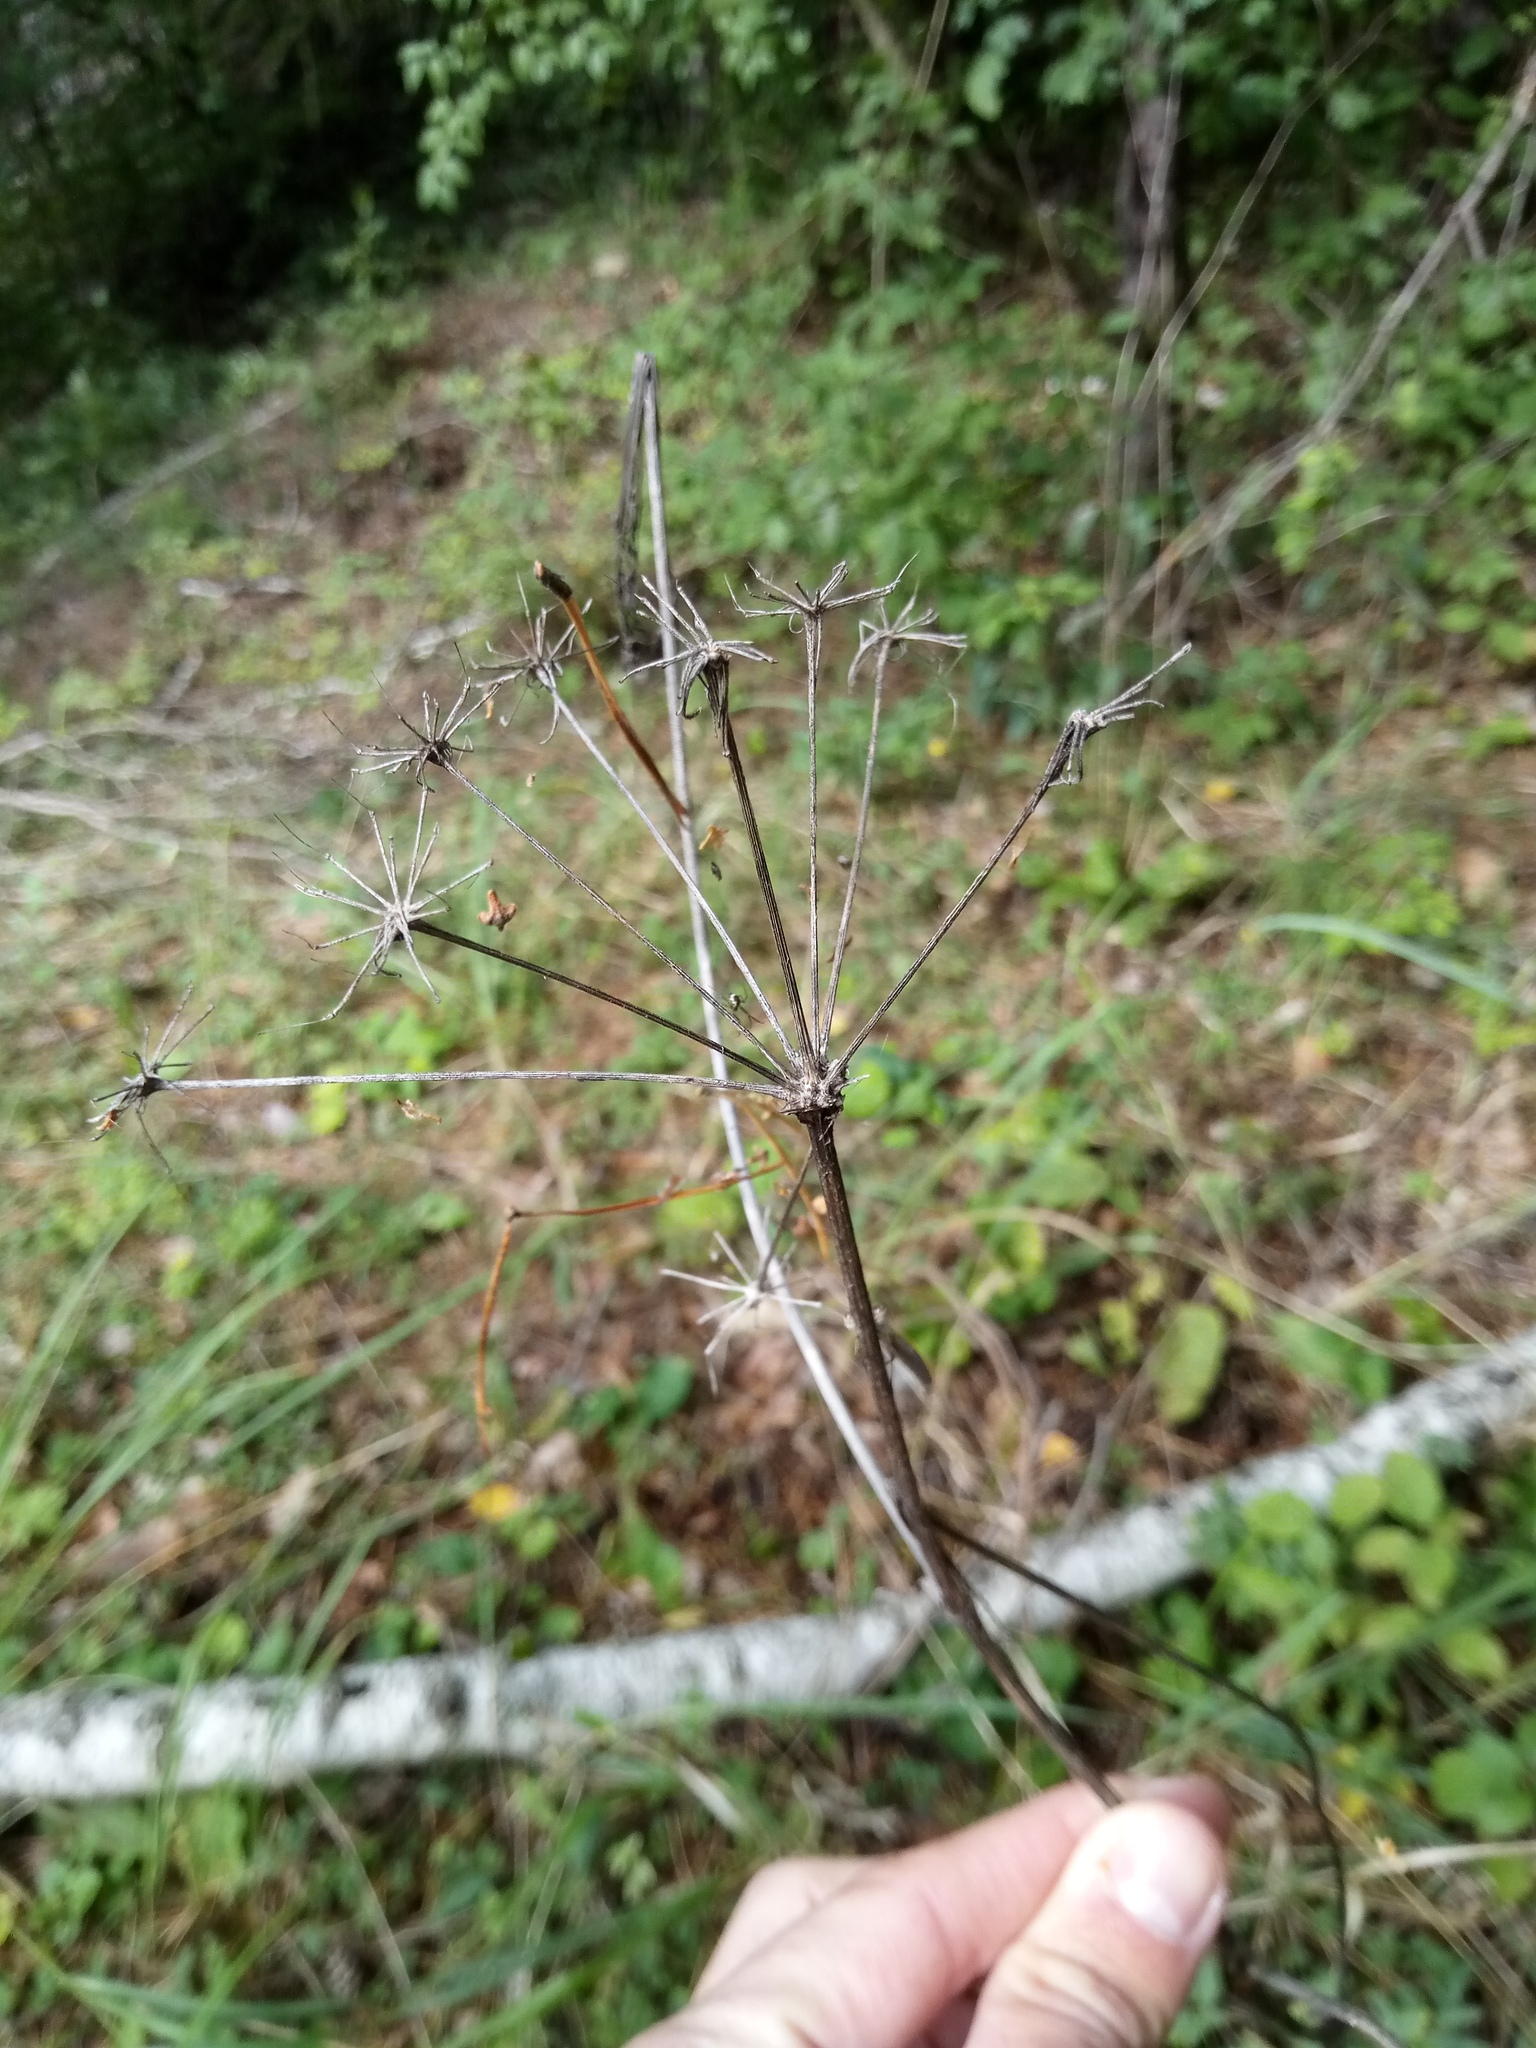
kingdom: Plantae
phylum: Tracheophyta
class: Magnoliopsida
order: Apiales
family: Apiaceae
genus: Cervaria
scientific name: Cervaria rivini
